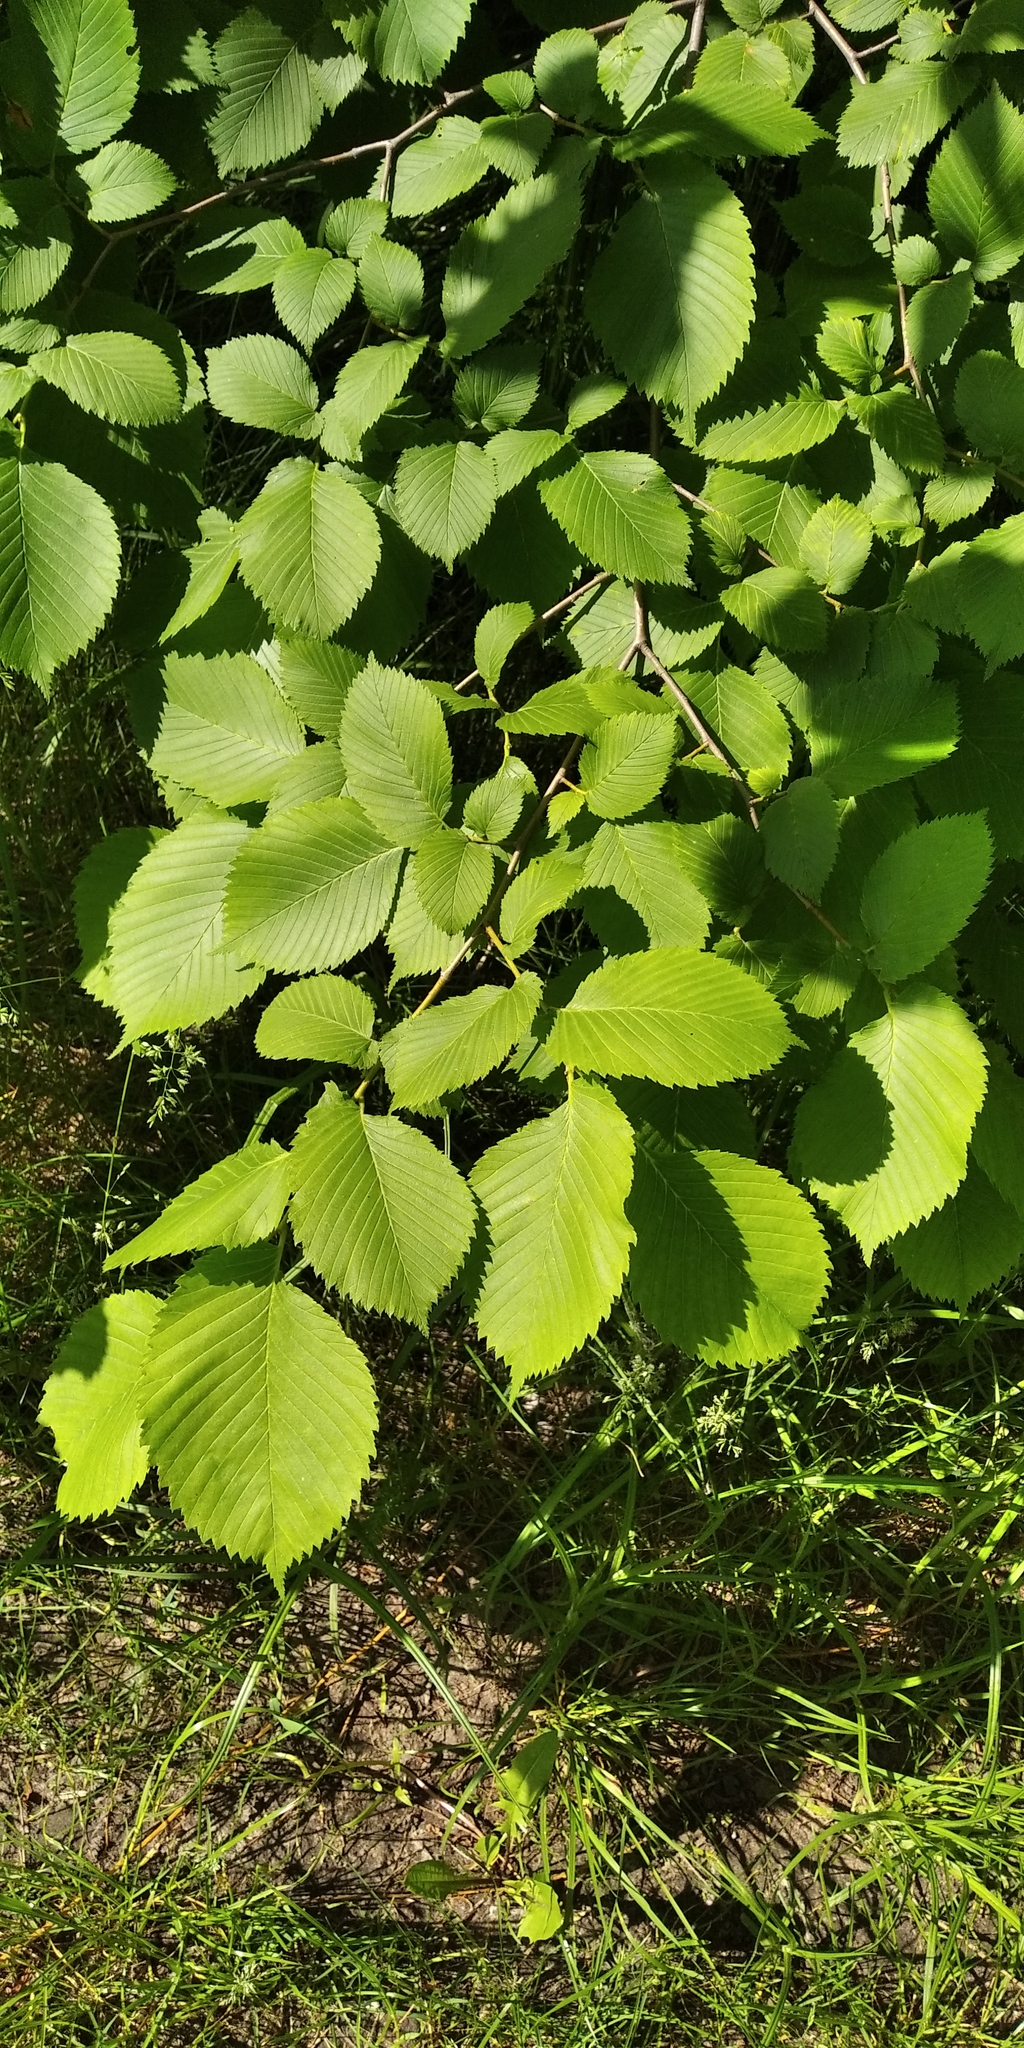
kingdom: Plantae
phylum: Tracheophyta
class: Magnoliopsida
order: Rosales
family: Ulmaceae
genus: Ulmus
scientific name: Ulmus laevis
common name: European white-elm
